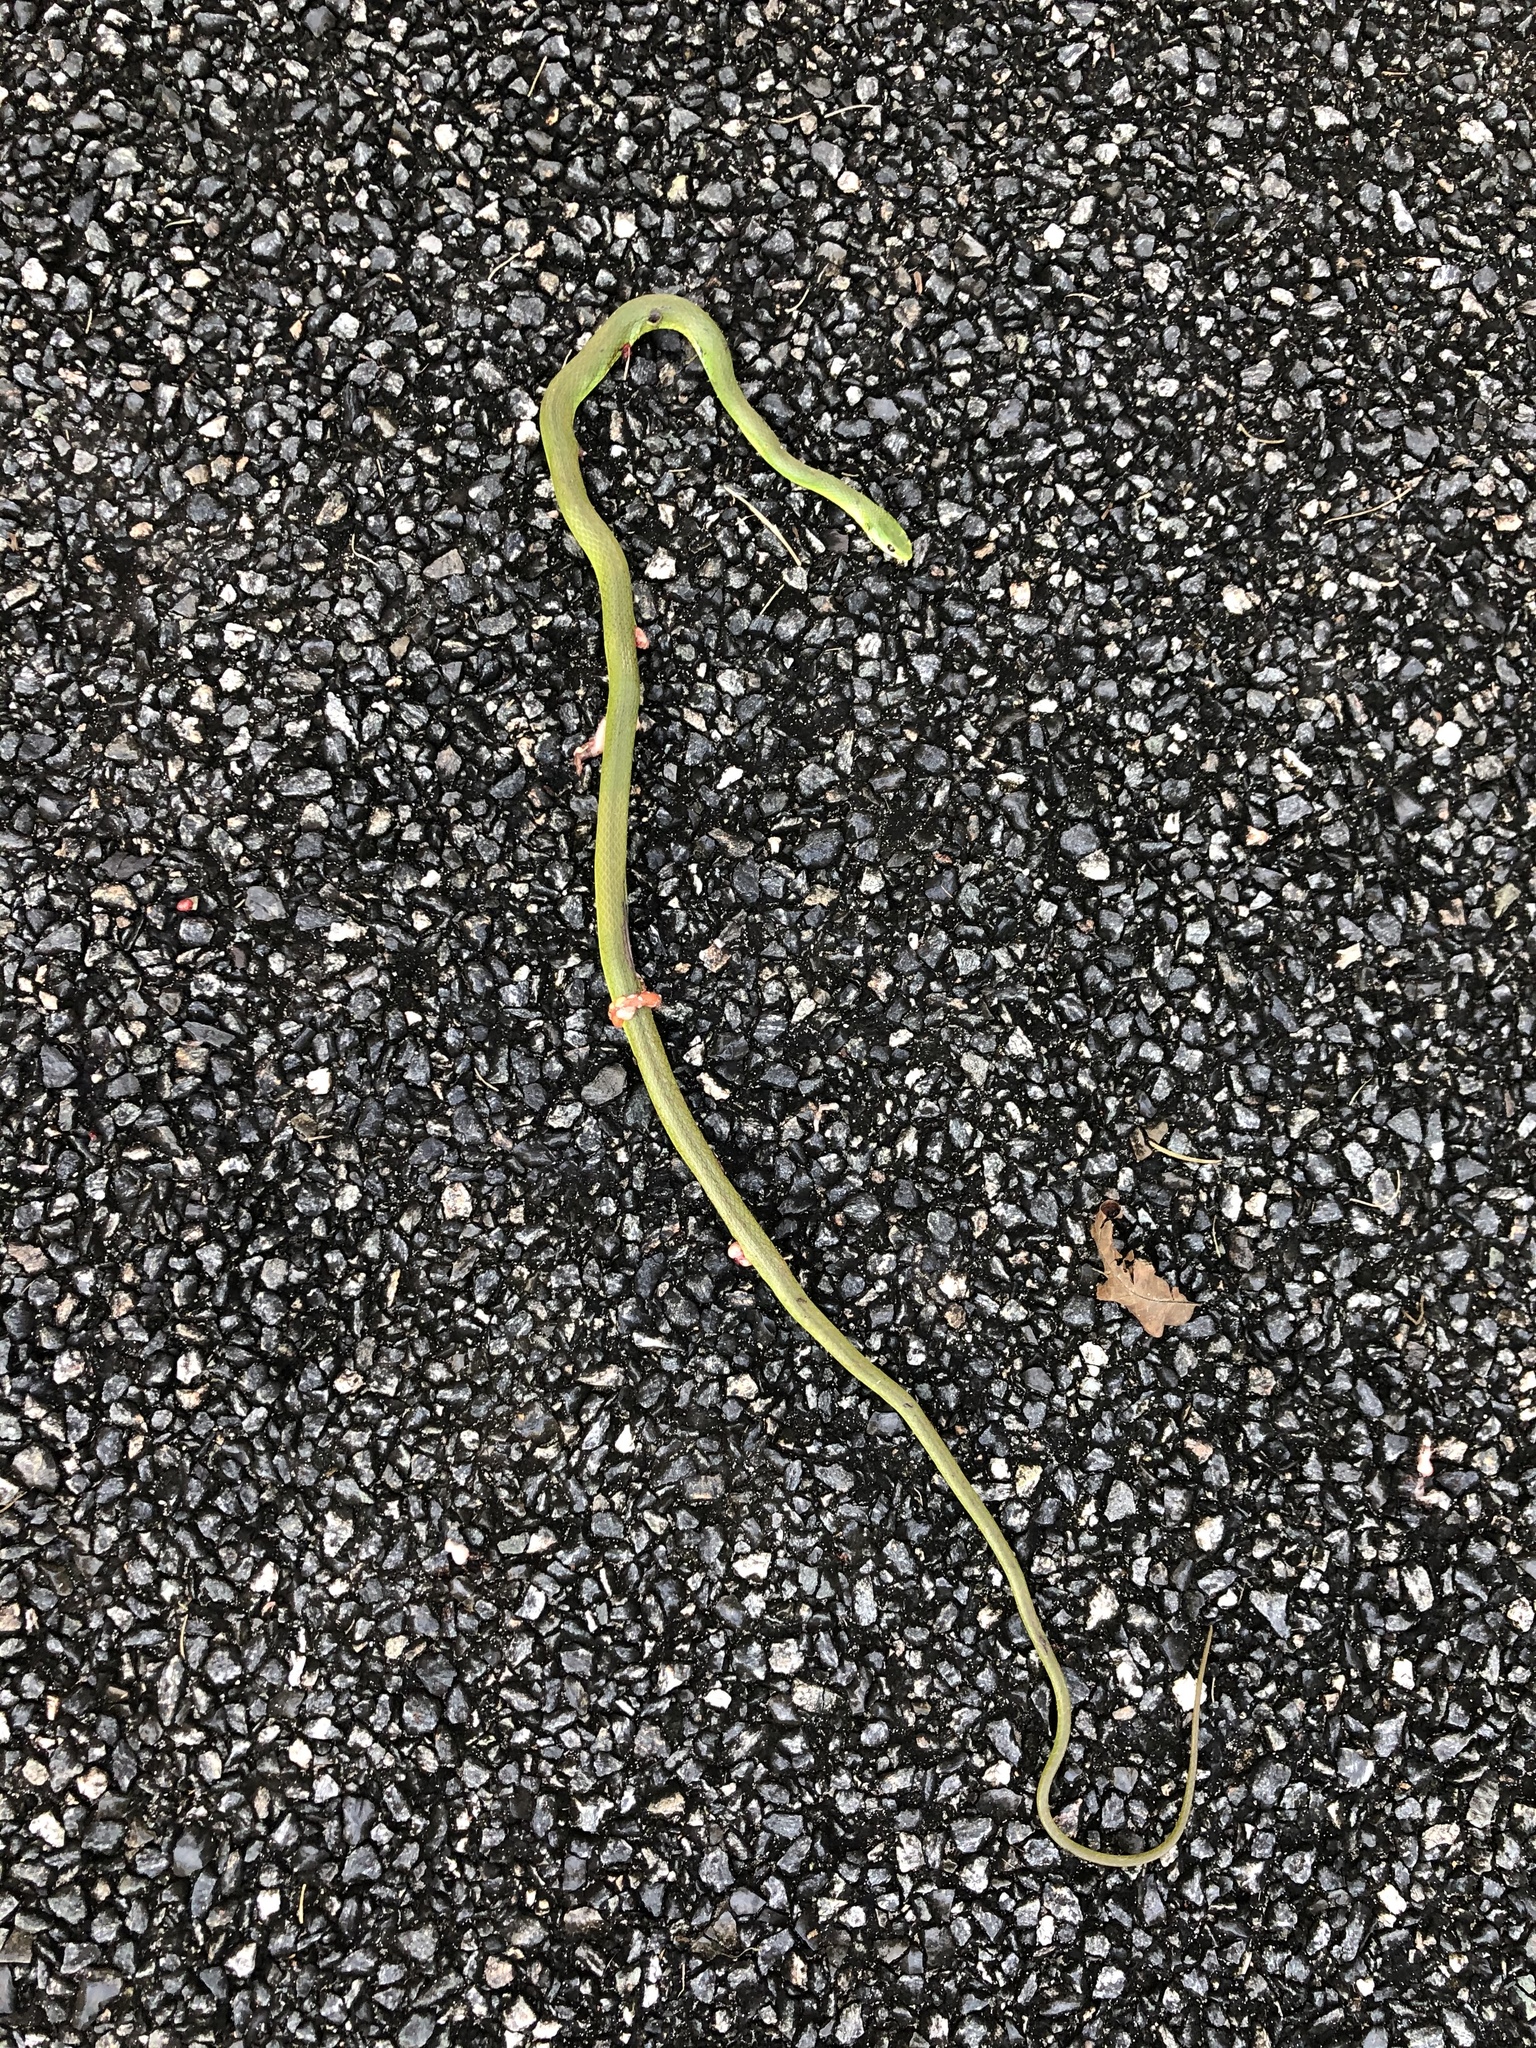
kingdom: Animalia
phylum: Chordata
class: Squamata
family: Colubridae
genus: Opheodrys
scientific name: Opheodrys aestivus
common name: Rough greensnake
